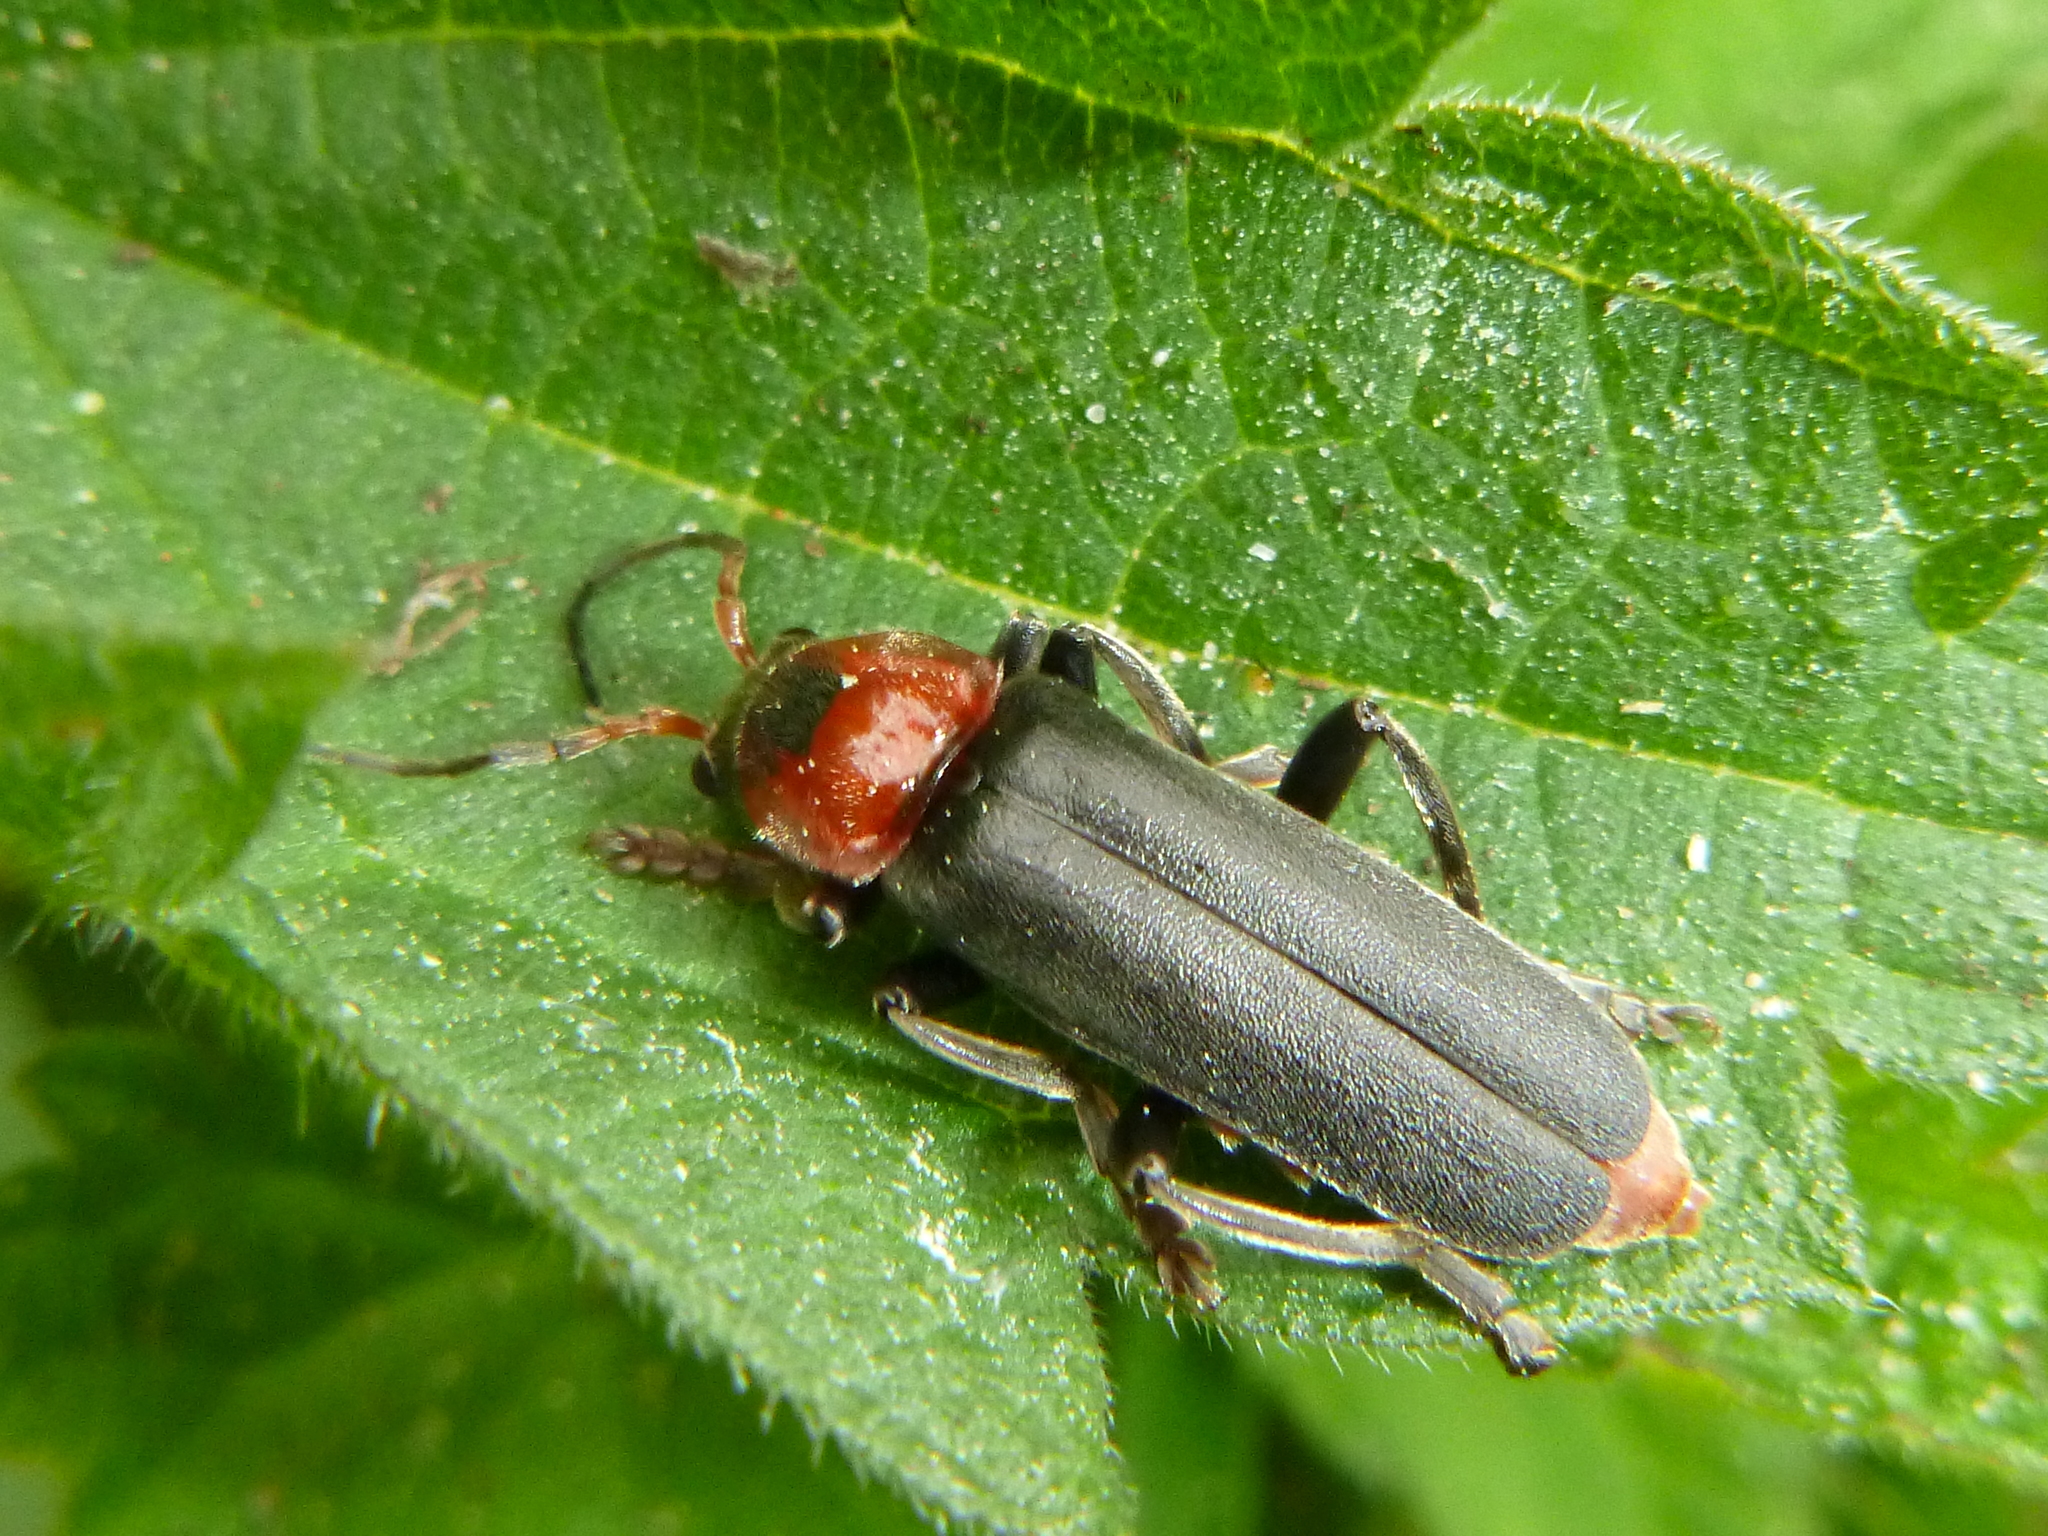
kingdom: Animalia
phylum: Arthropoda
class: Insecta
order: Coleoptera
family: Cantharidae
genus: Cantharis
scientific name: Cantharis fusca
